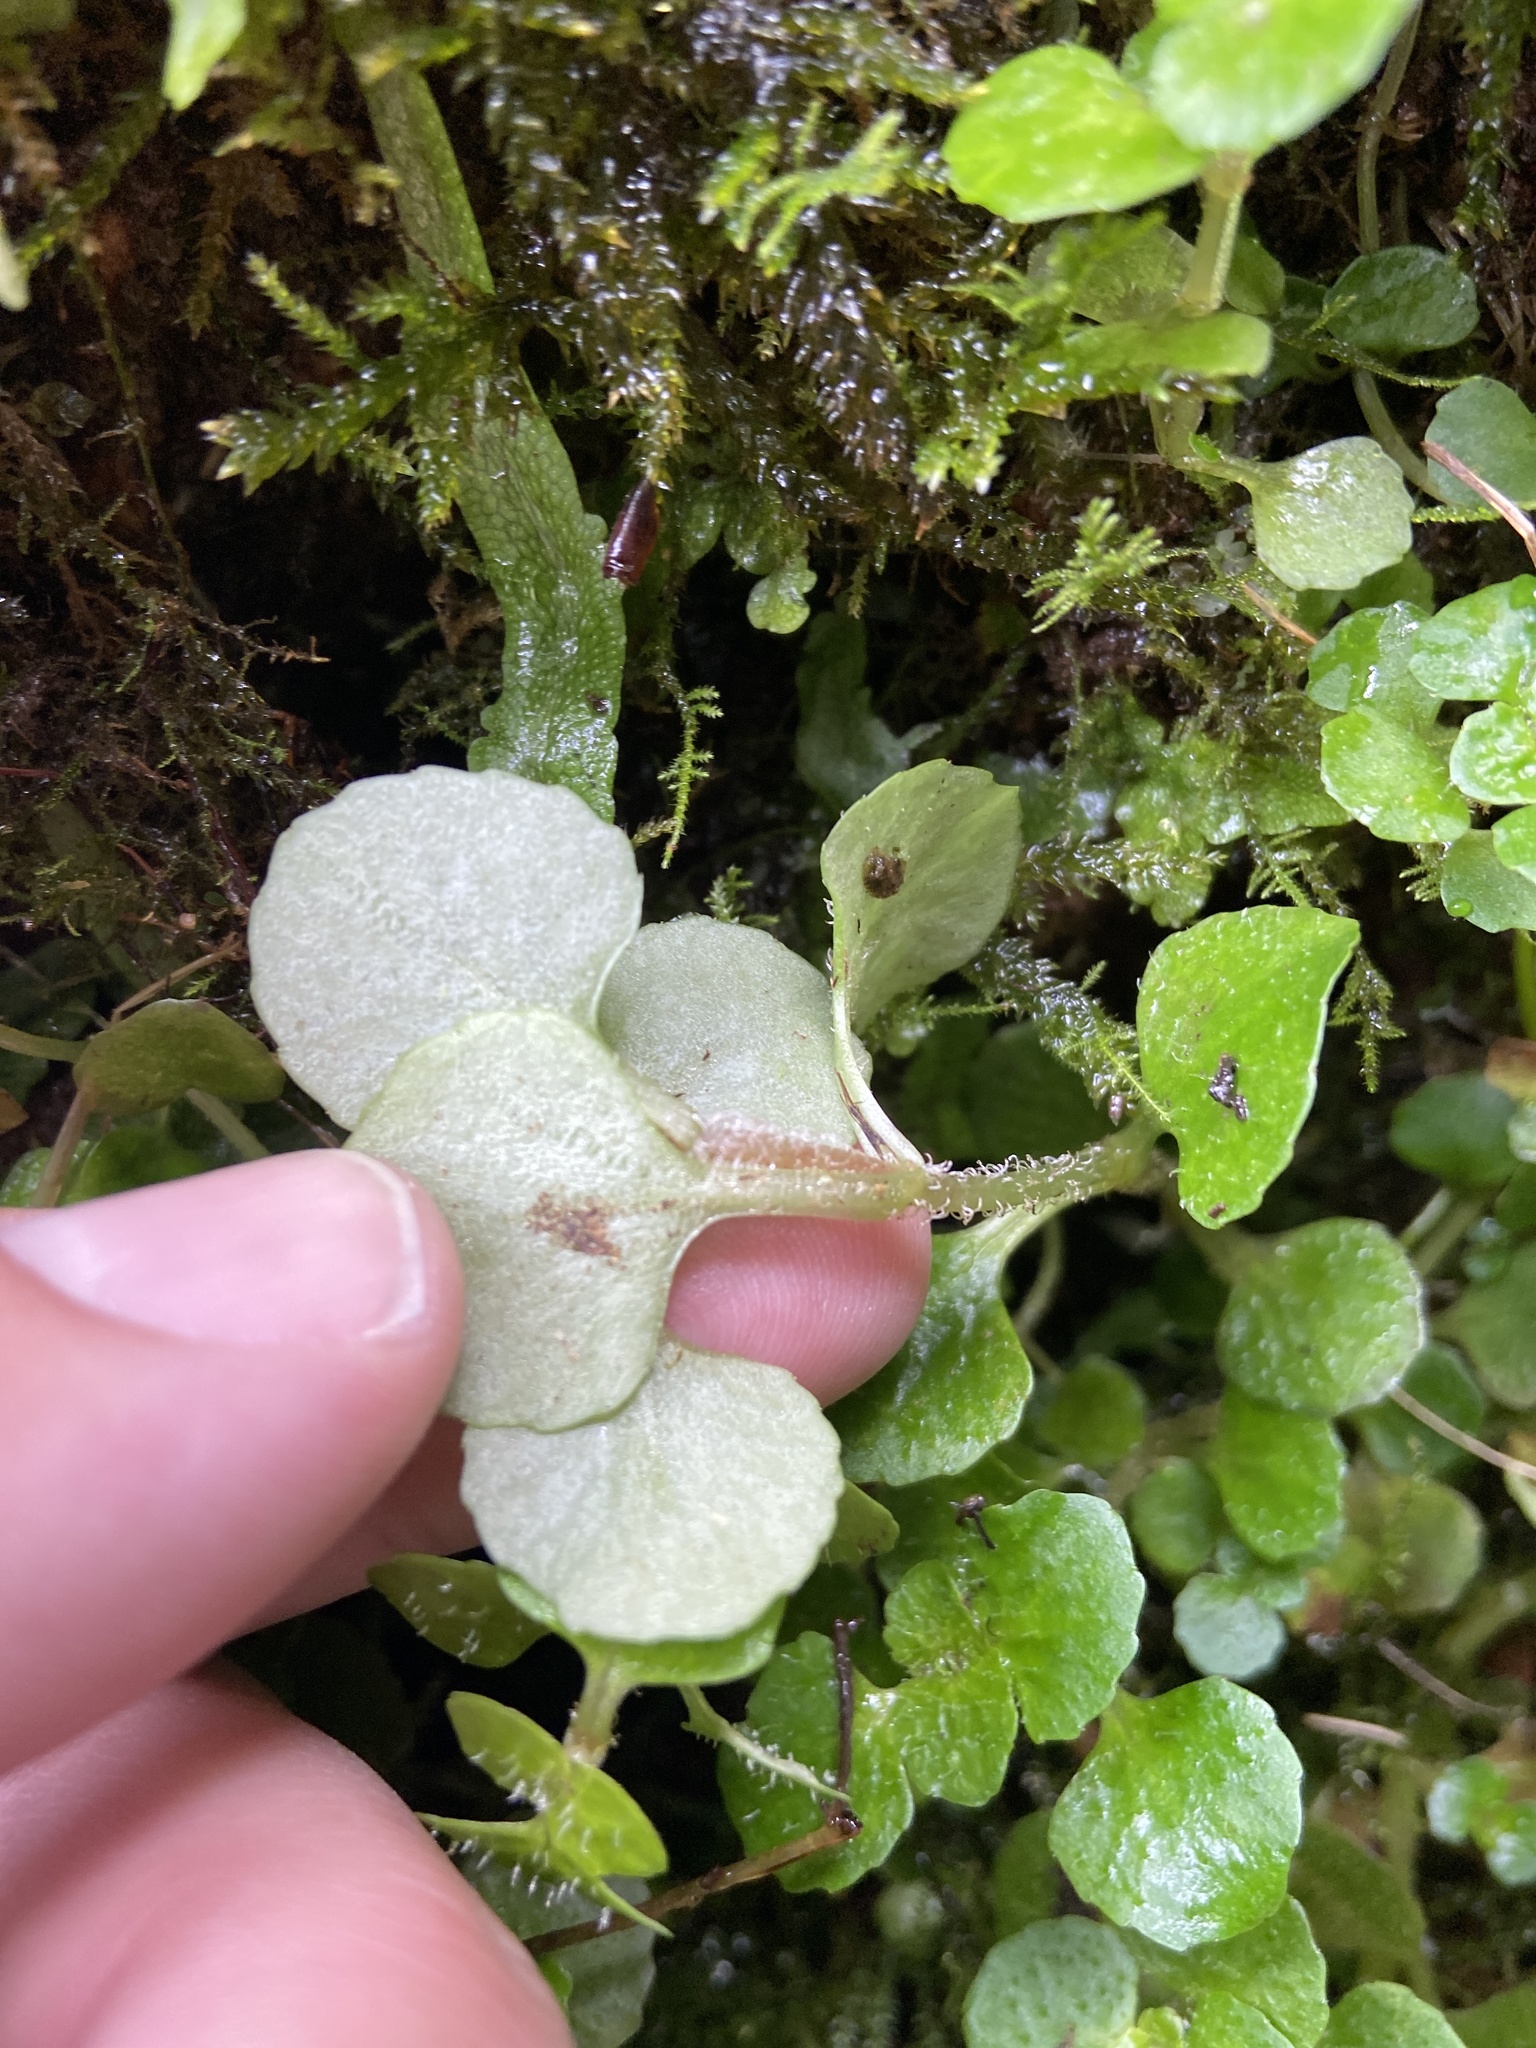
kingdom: Plantae
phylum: Tracheophyta
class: Magnoliopsida
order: Saxifragales
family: Saxifragaceae
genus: Chrysosplenium
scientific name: Chrysosplenium oppositifolium
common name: Opposite-leaved golden-saxifrage
